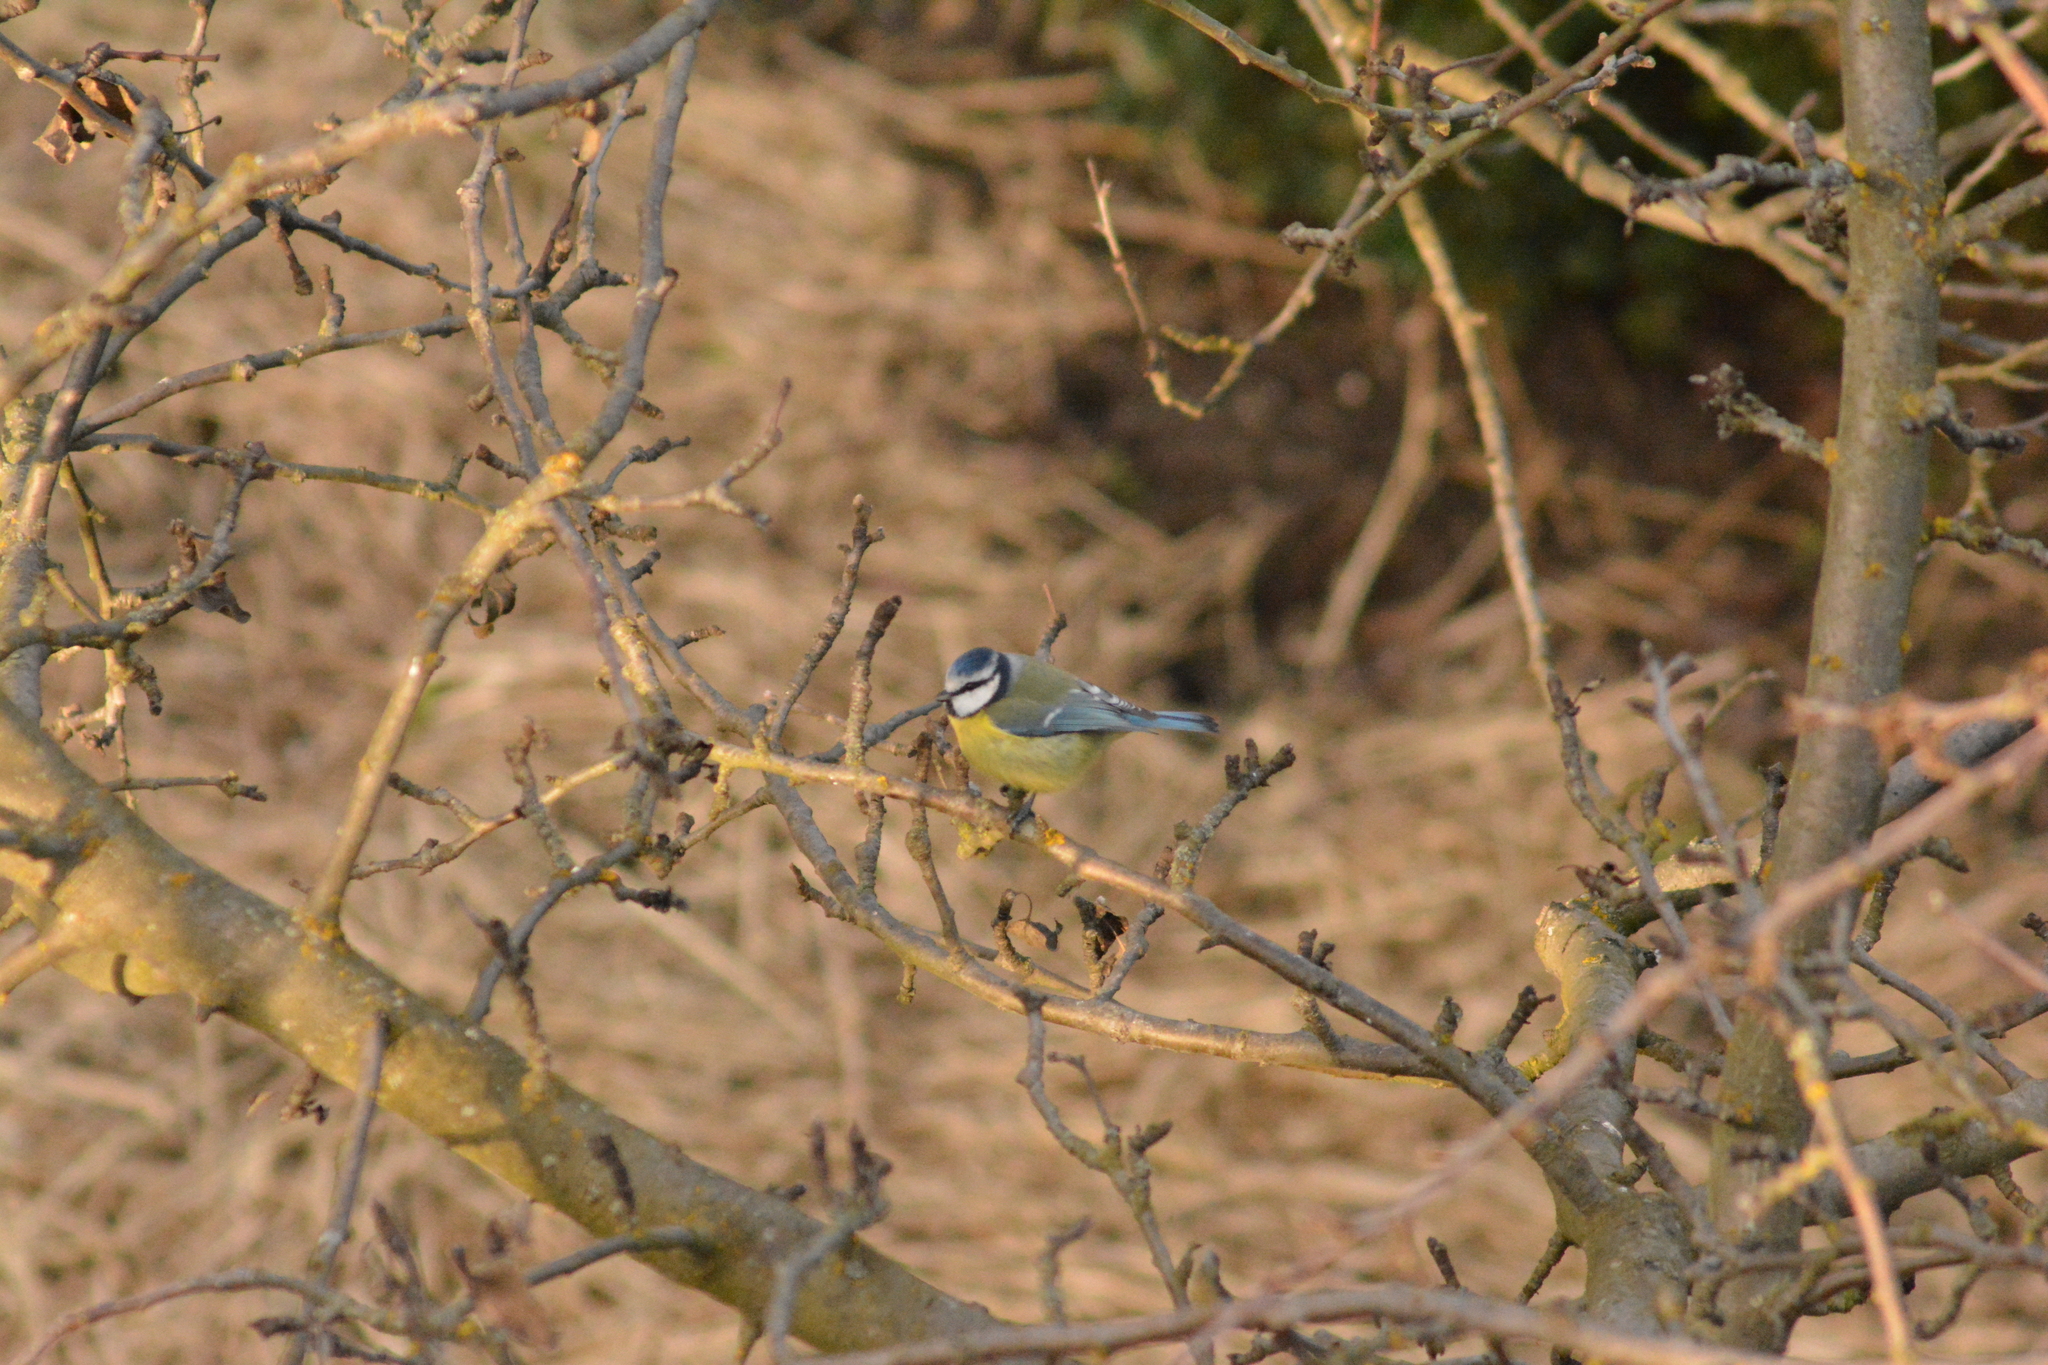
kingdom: Animalia
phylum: Chordata
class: Aves
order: Passeriformes
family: Paridae
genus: Cyanistes
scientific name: Cyanistes caeruleus
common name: Eurasian blue tit
